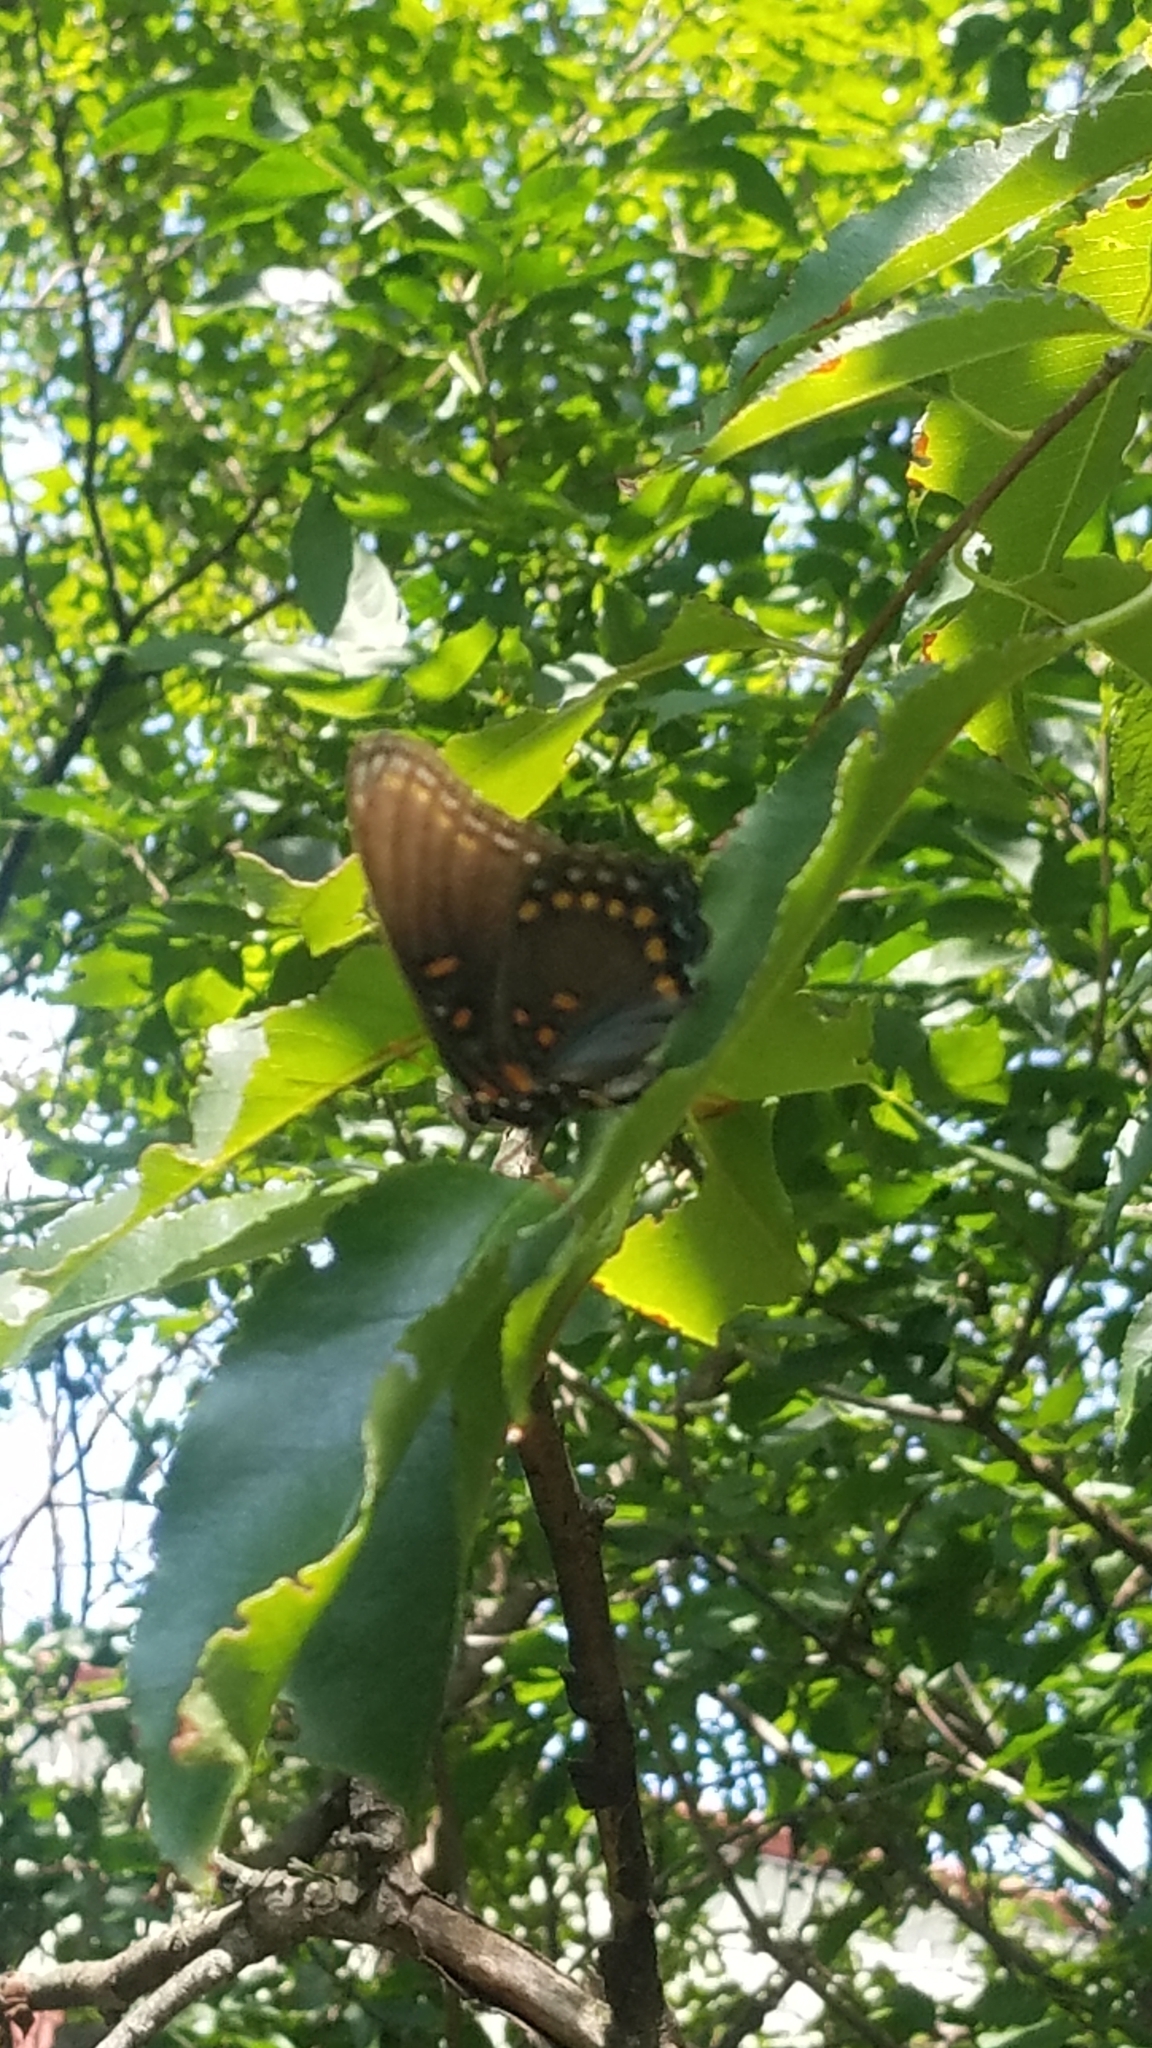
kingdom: Animalia
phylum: Arthropoda
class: Insecta
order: Lepidoptera
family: Nymphalidae
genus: Limenitis
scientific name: Limenitis astyanax
